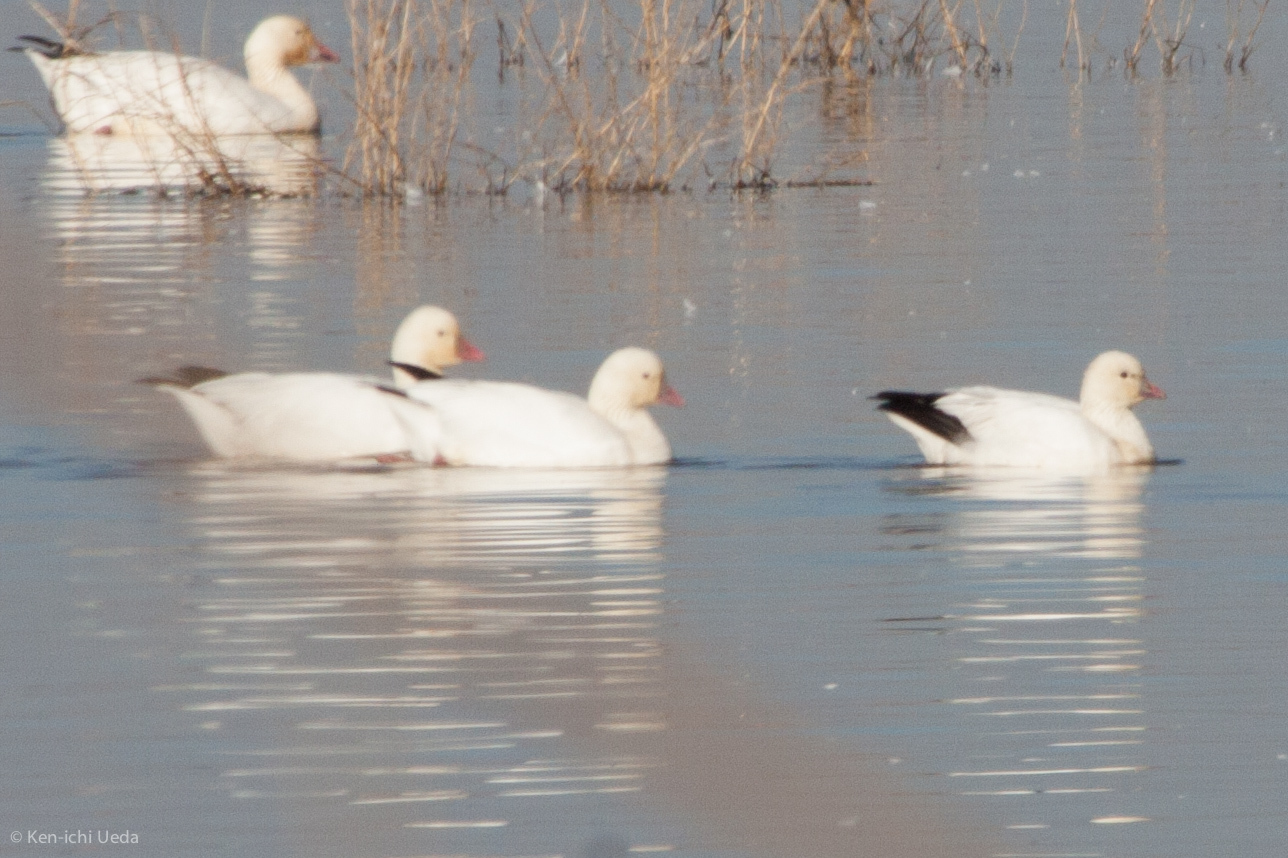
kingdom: Animalia
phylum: Chordata
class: Aves
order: Anseriformes
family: Anatidae
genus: Anser
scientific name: Anser rossii
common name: Ross's goose
